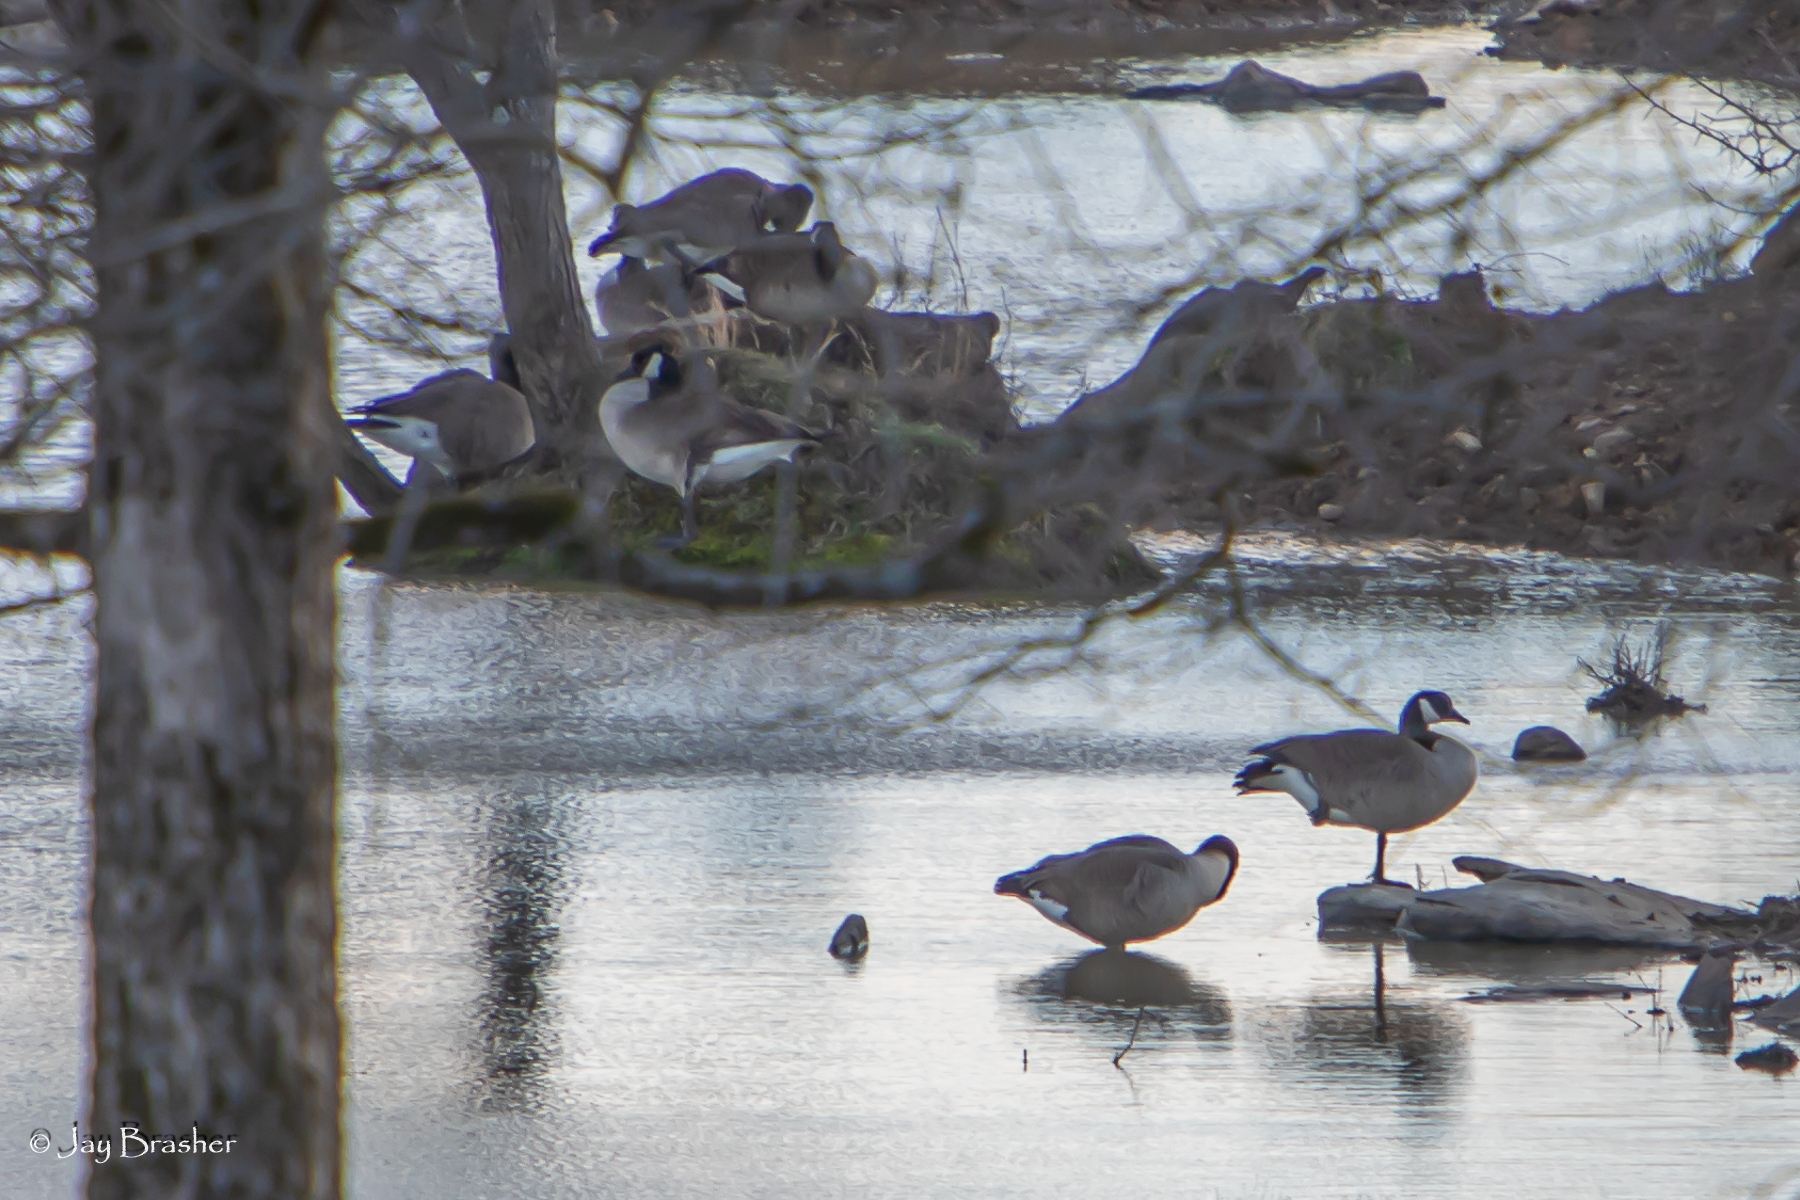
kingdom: Animalia
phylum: Chordata
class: Aves
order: Anseriformes
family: Anatidae
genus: Branta
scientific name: Branta canadensis
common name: Canada goose
